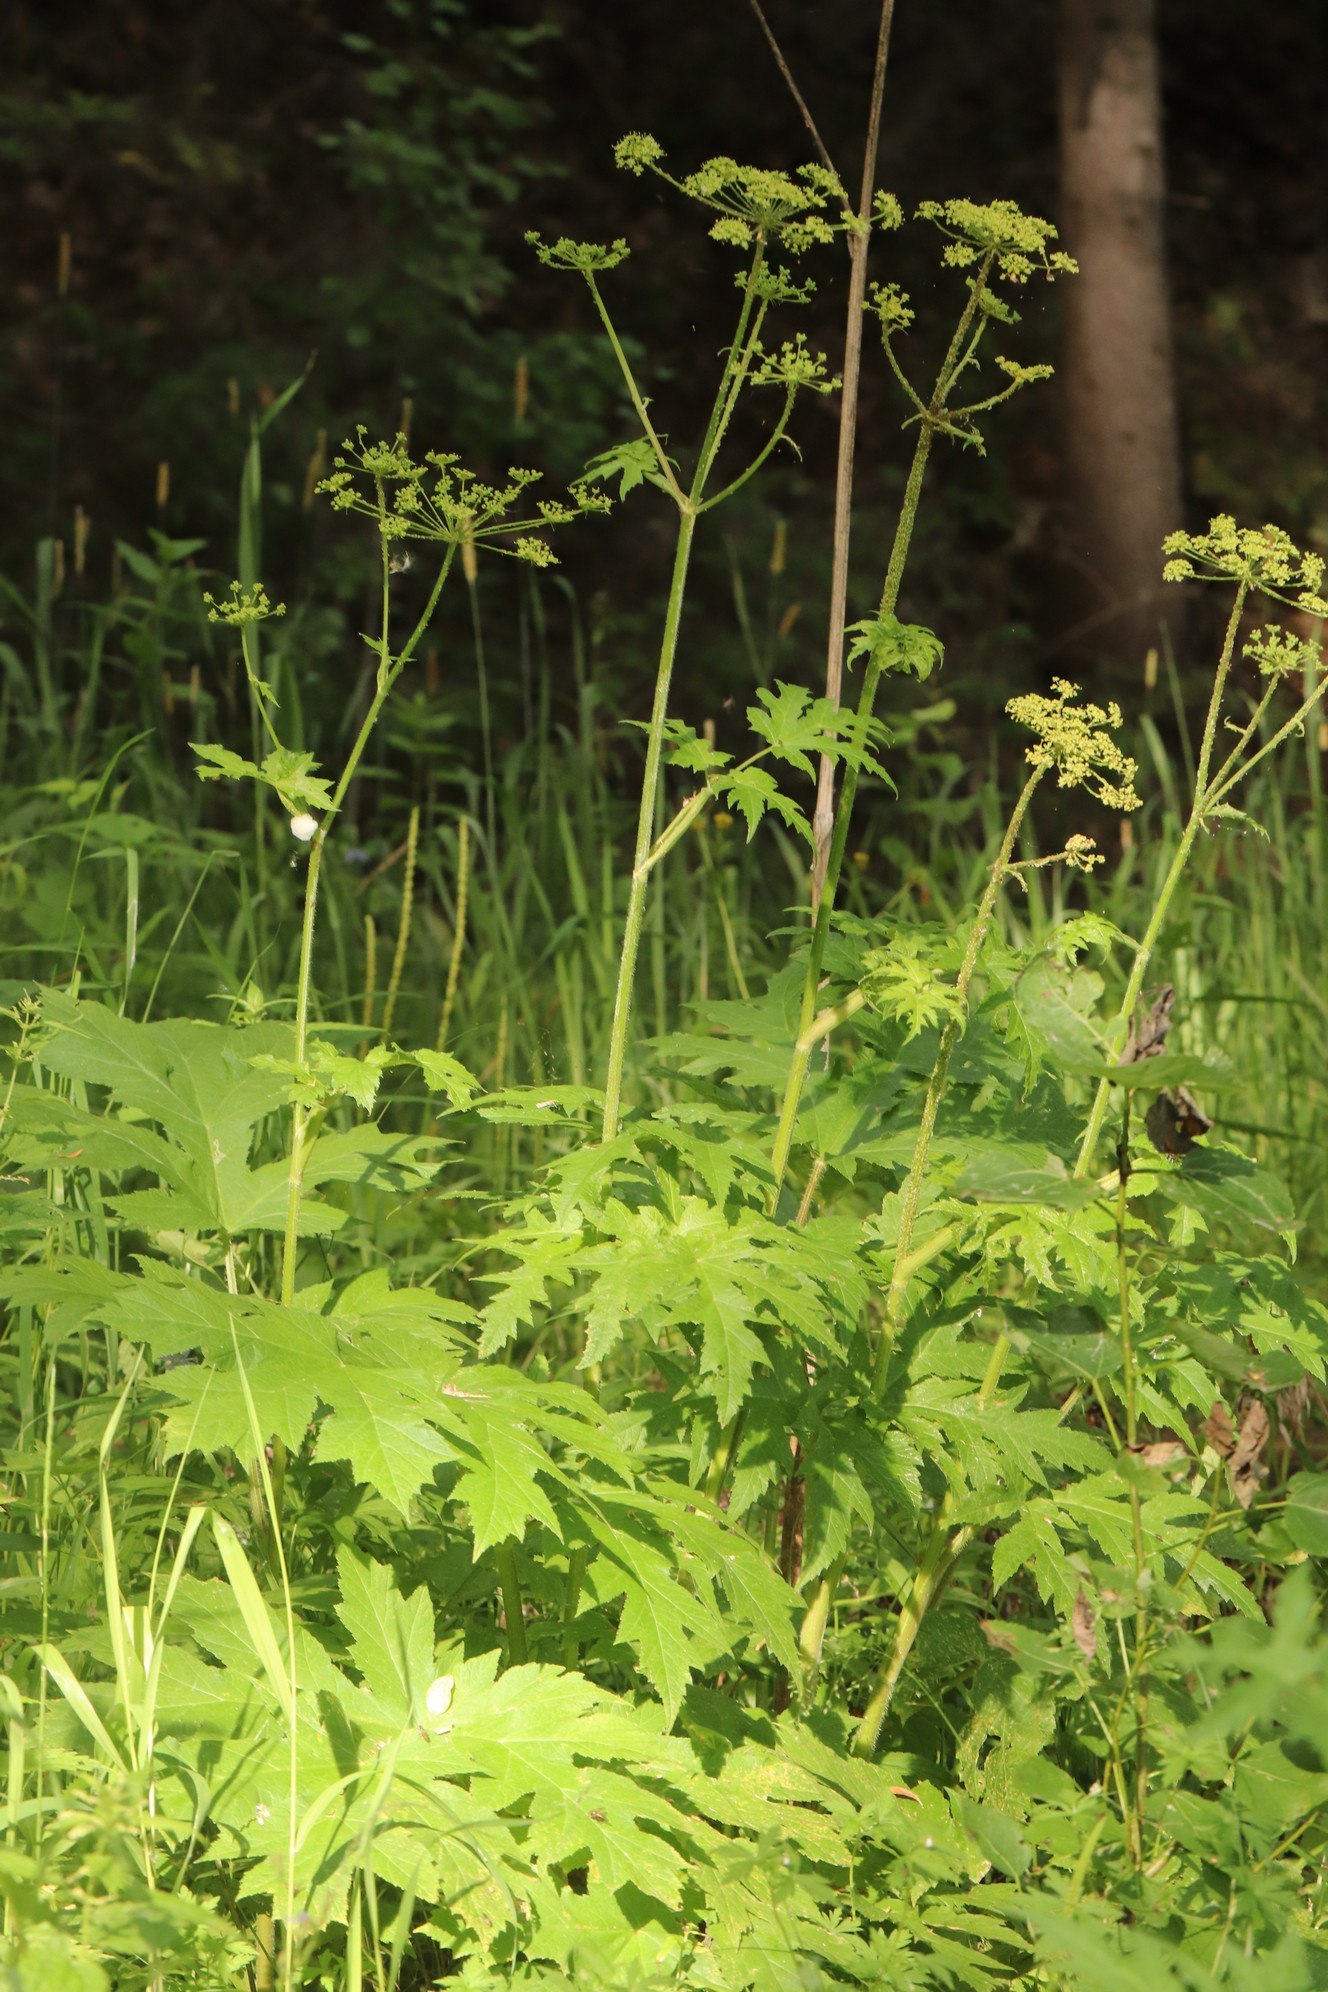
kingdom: Plantae
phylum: Tracheophyta
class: Magnoliopsida
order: Apiales
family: Apiaceae
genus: Heracleum
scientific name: Heracleum sphondylium
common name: Hogweed
